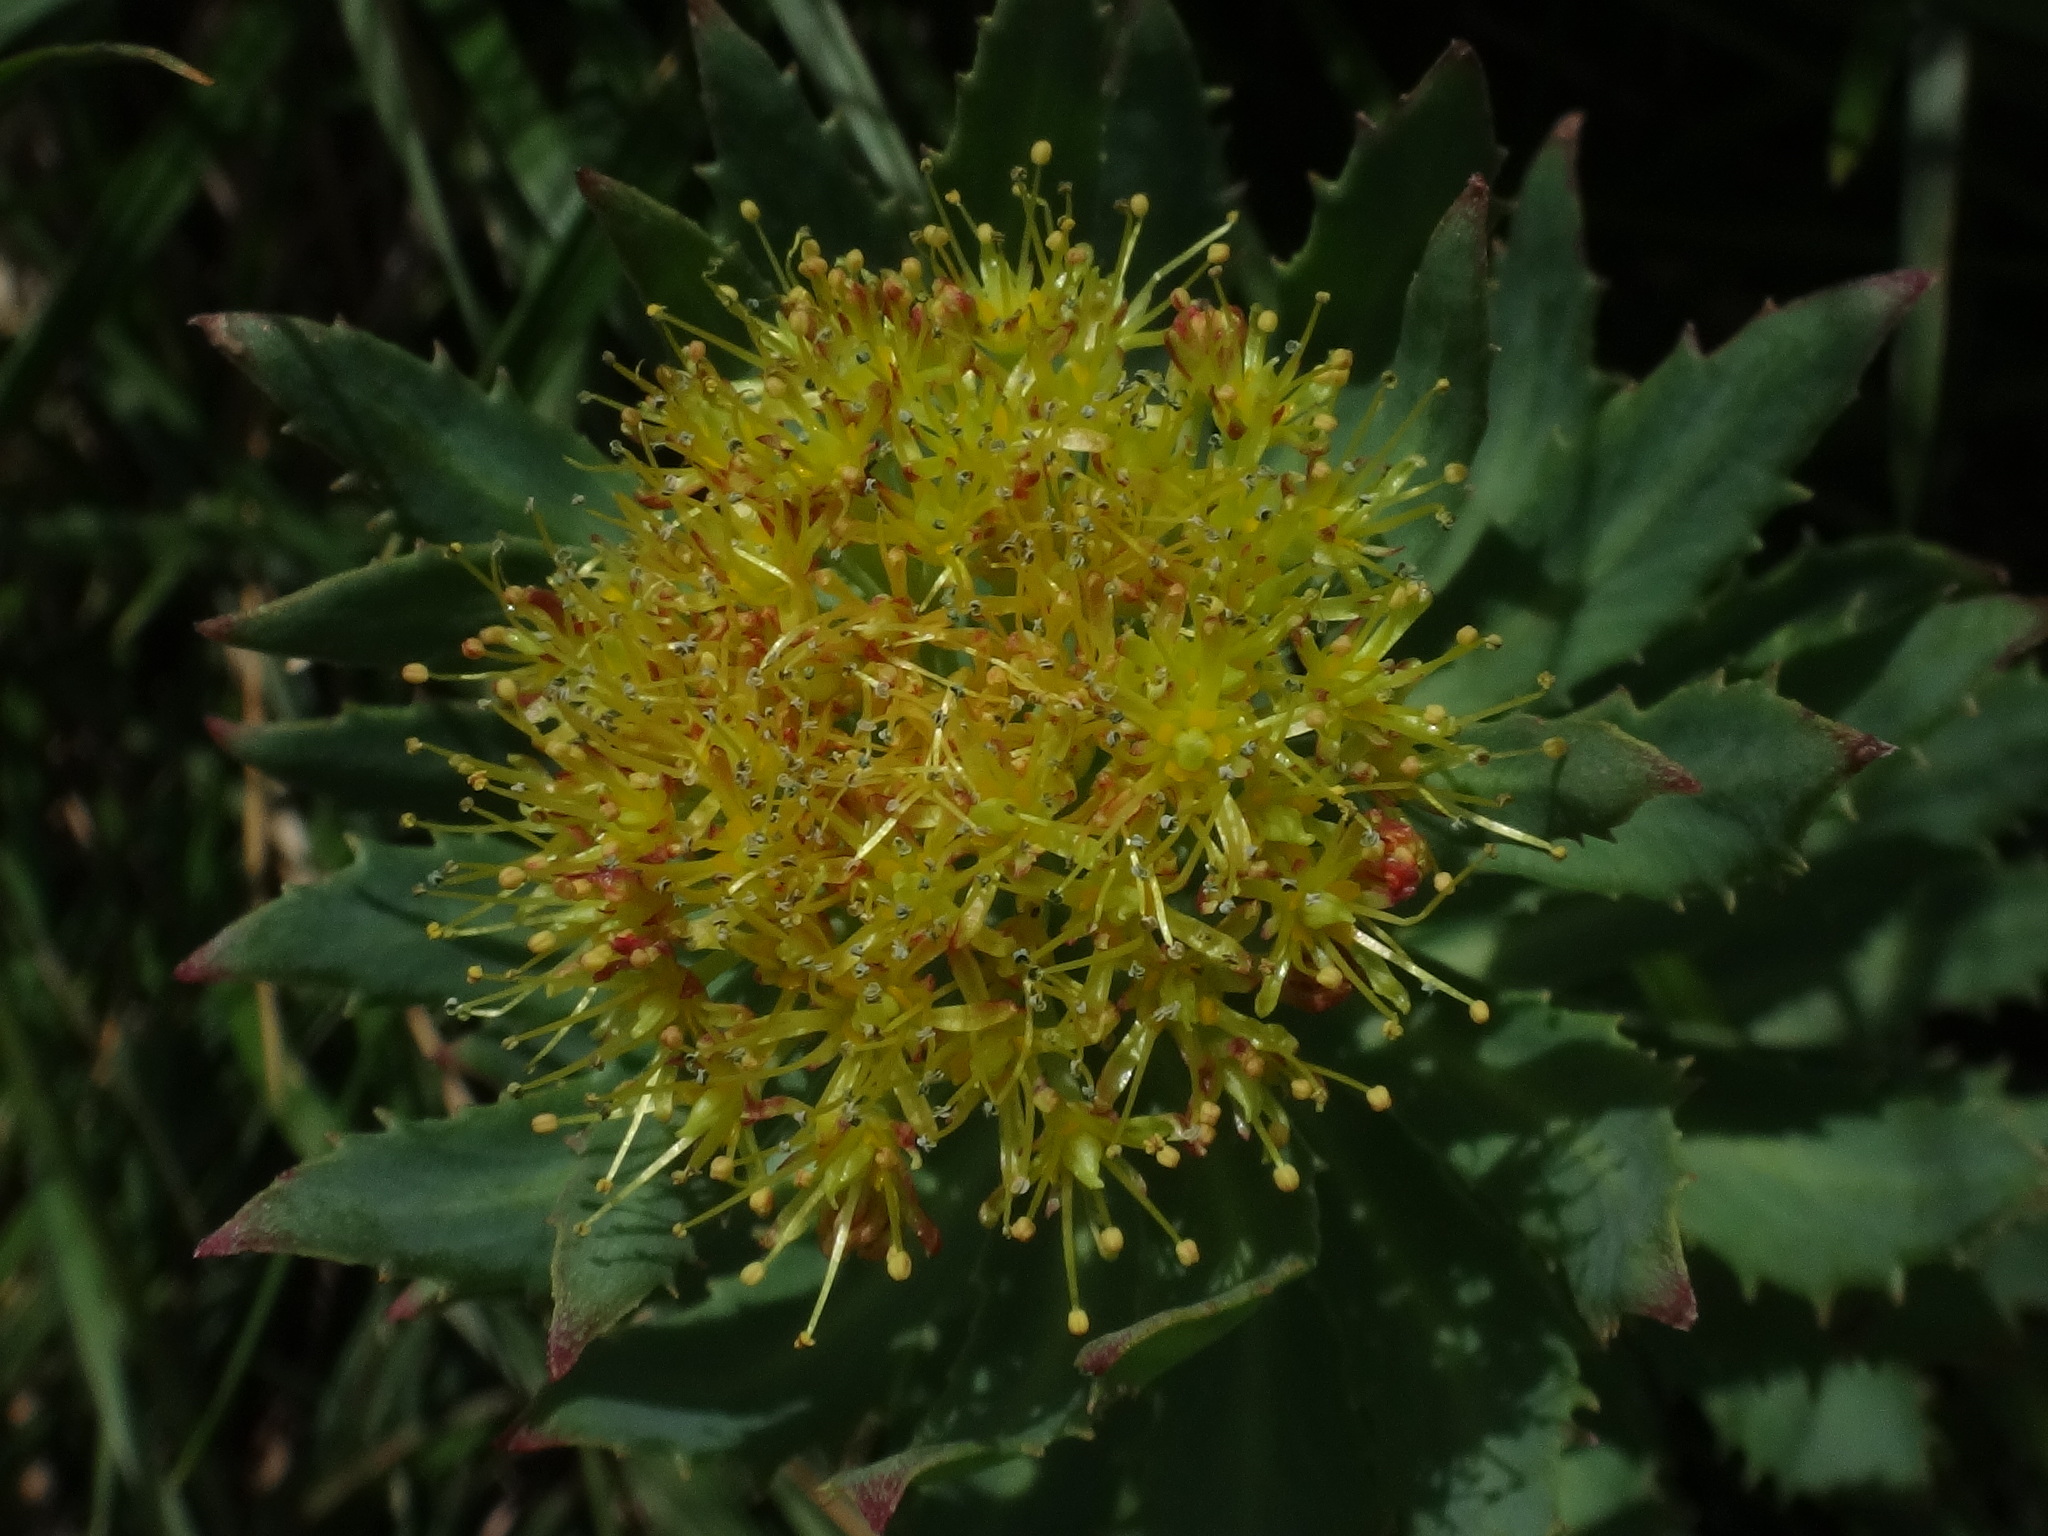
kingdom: Plantae
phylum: Tracheophyta
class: Magnoliopsida
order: Saxifragales
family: Crassulaceae
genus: Rhodiola
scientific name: Rhodiola rosea
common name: Roseroot
